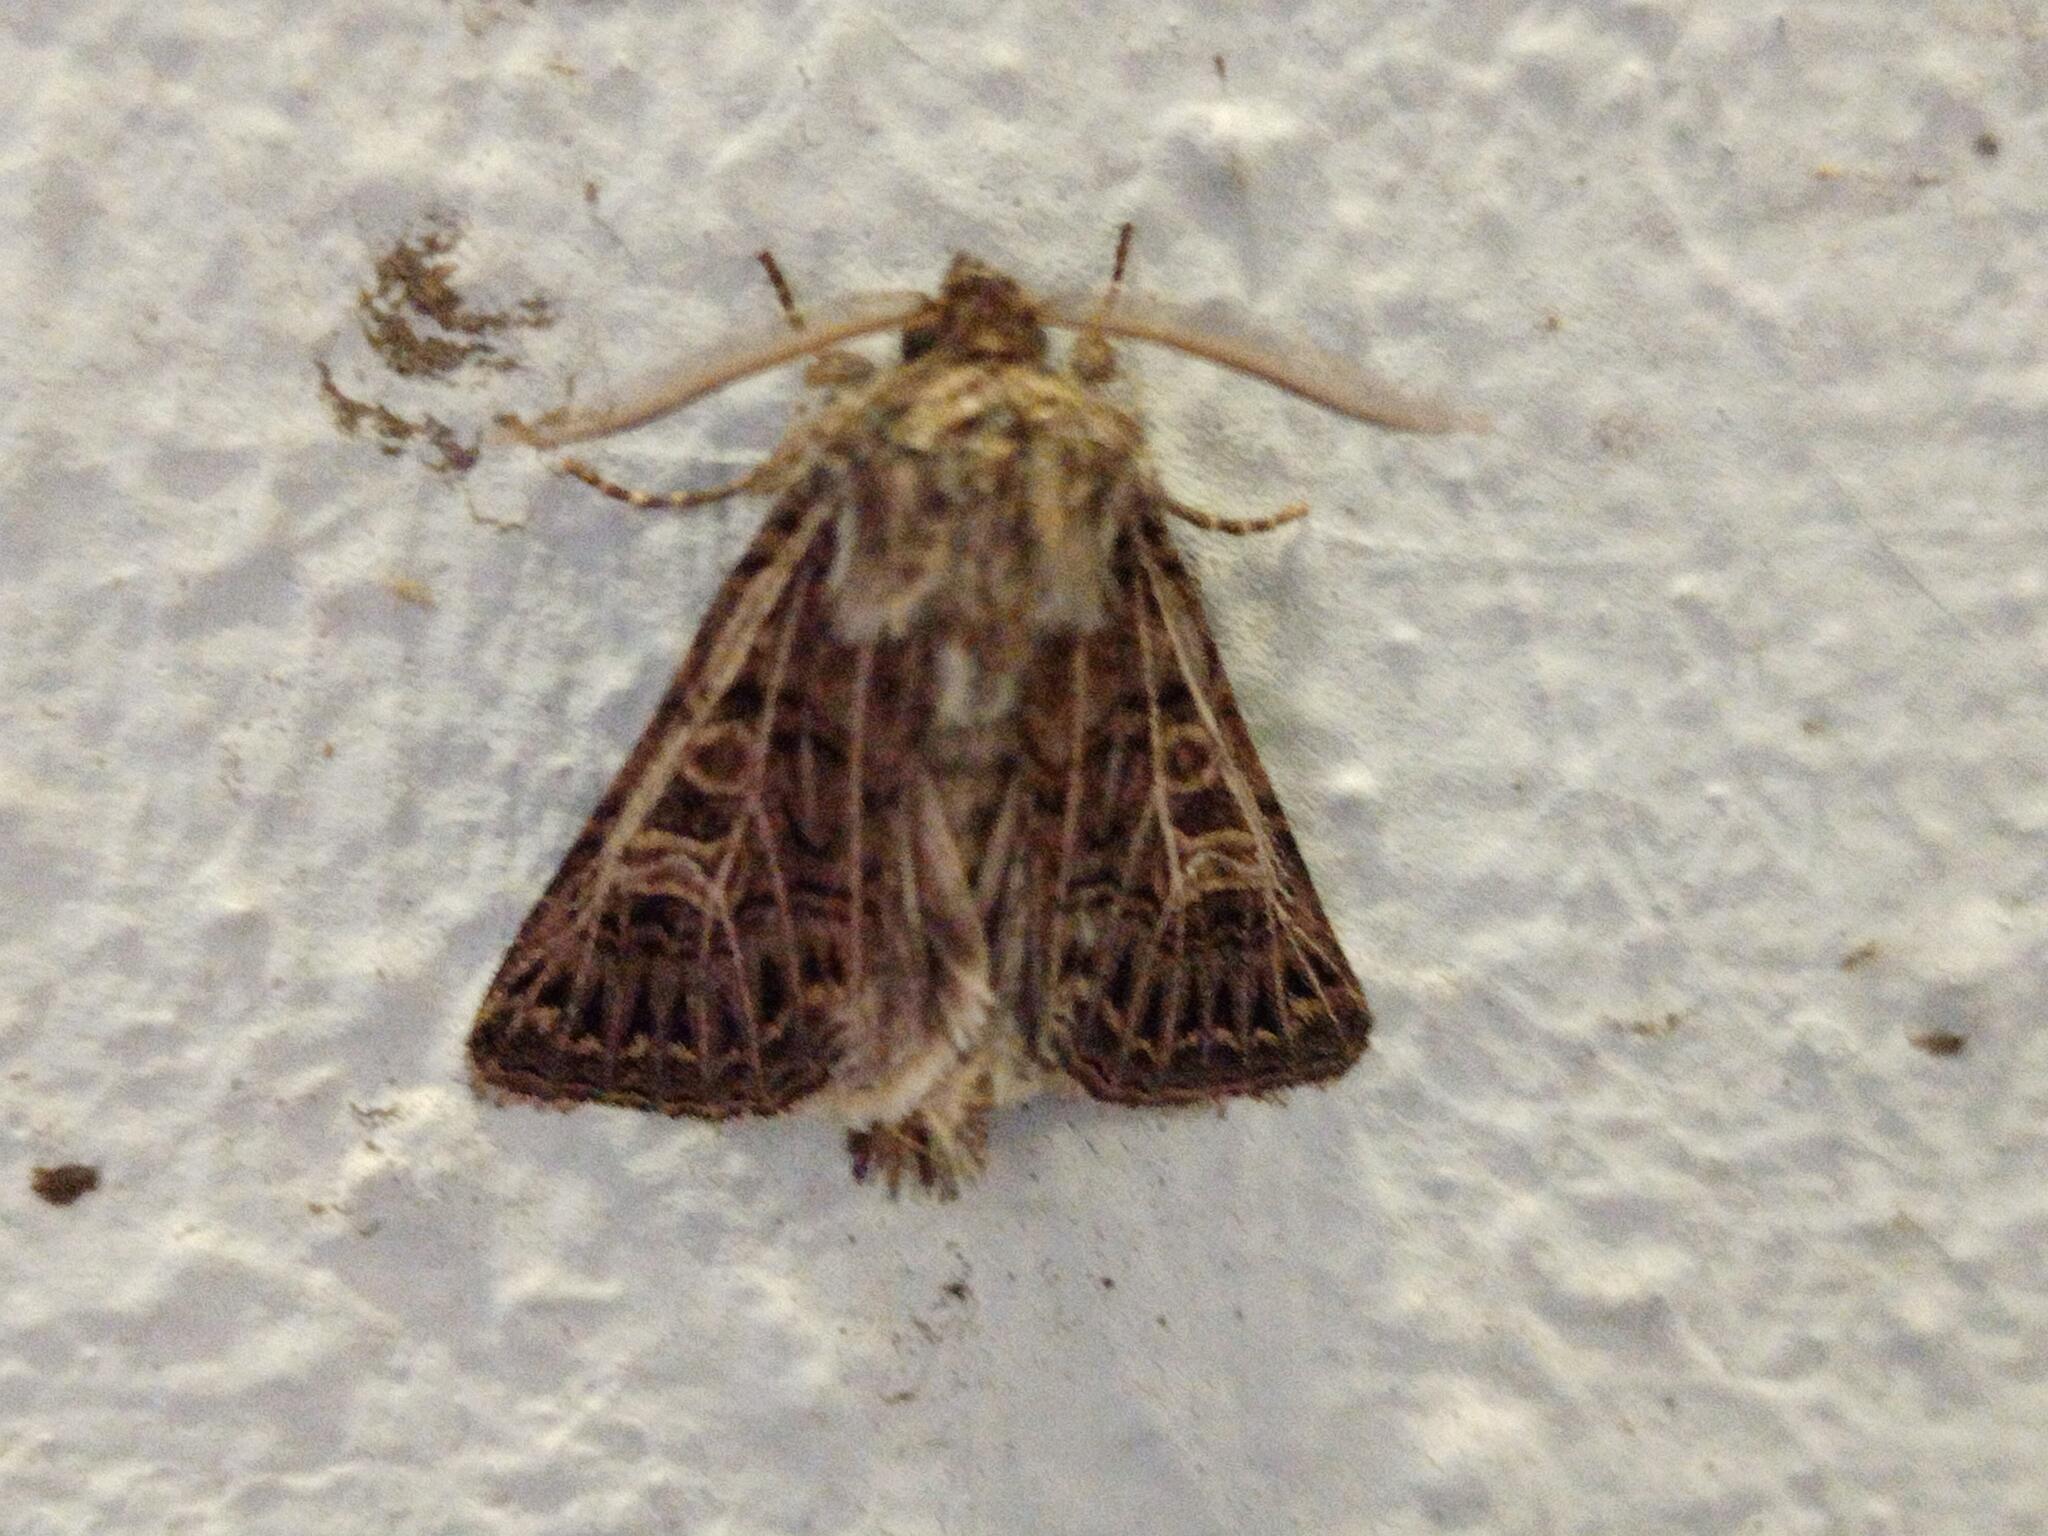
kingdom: Animalia
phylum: Arthropoda
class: Insecta
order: Lepidoptera
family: Noctuidae
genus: Tholera
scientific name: Tholera decimalis
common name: Feathered gothic
